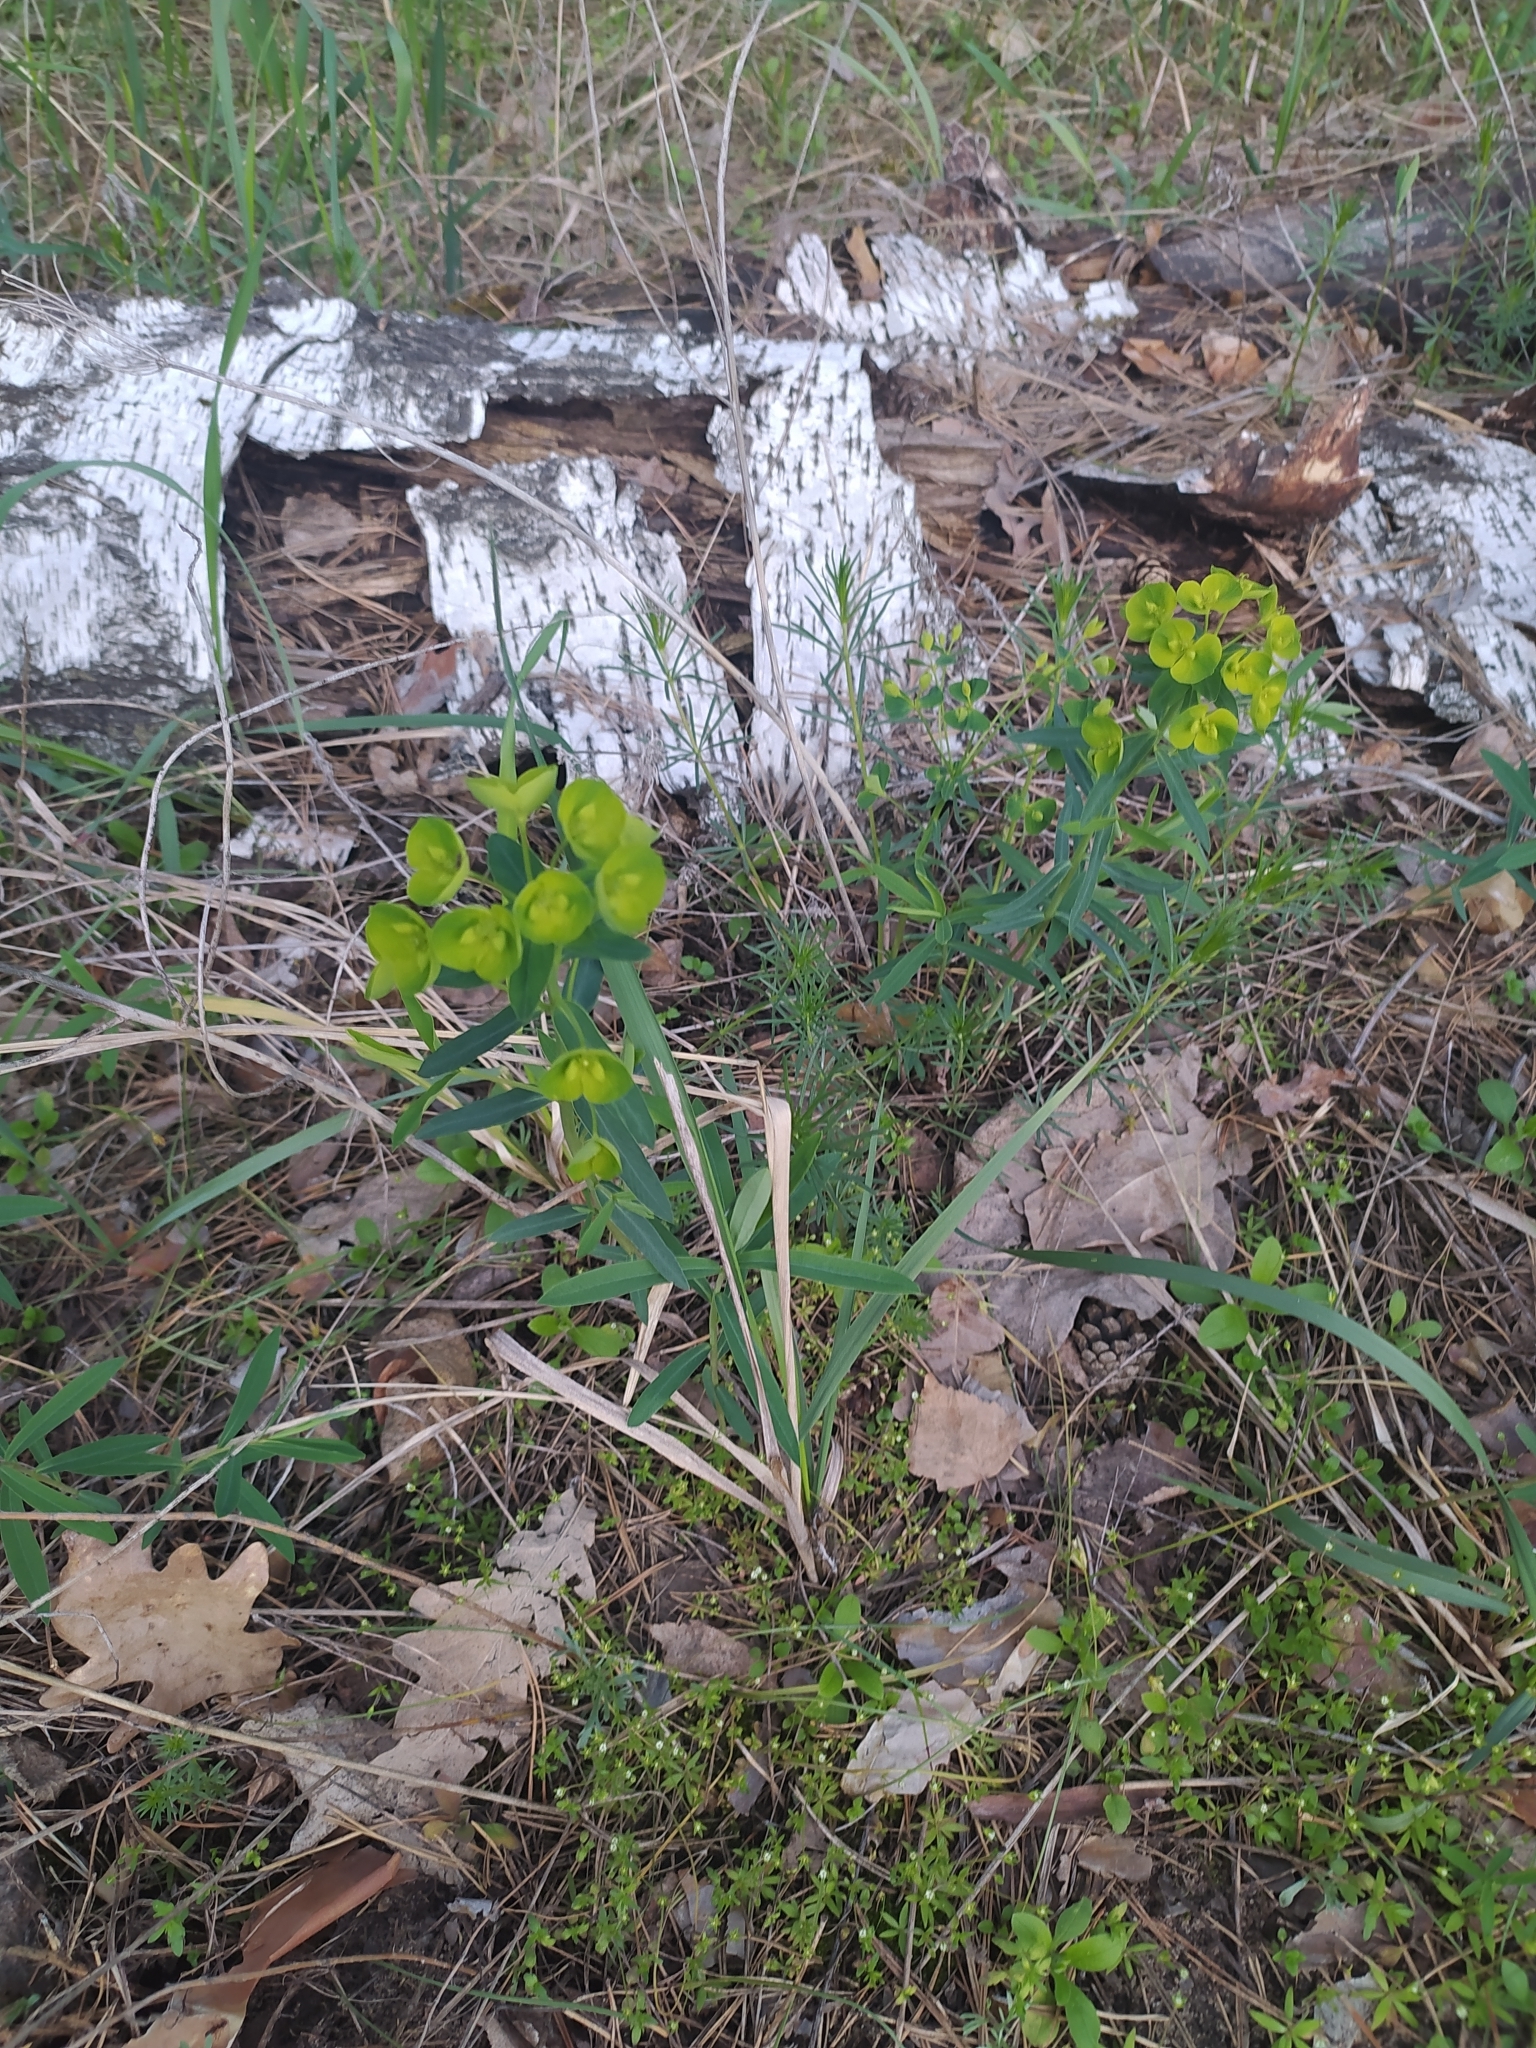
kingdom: Plantae
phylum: Tracheophyta
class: Magnoliopsida
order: Malpighiales
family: Euphorbiaceae
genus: Euphorbia
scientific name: Euphorbia virgata
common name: Leafy spurge
